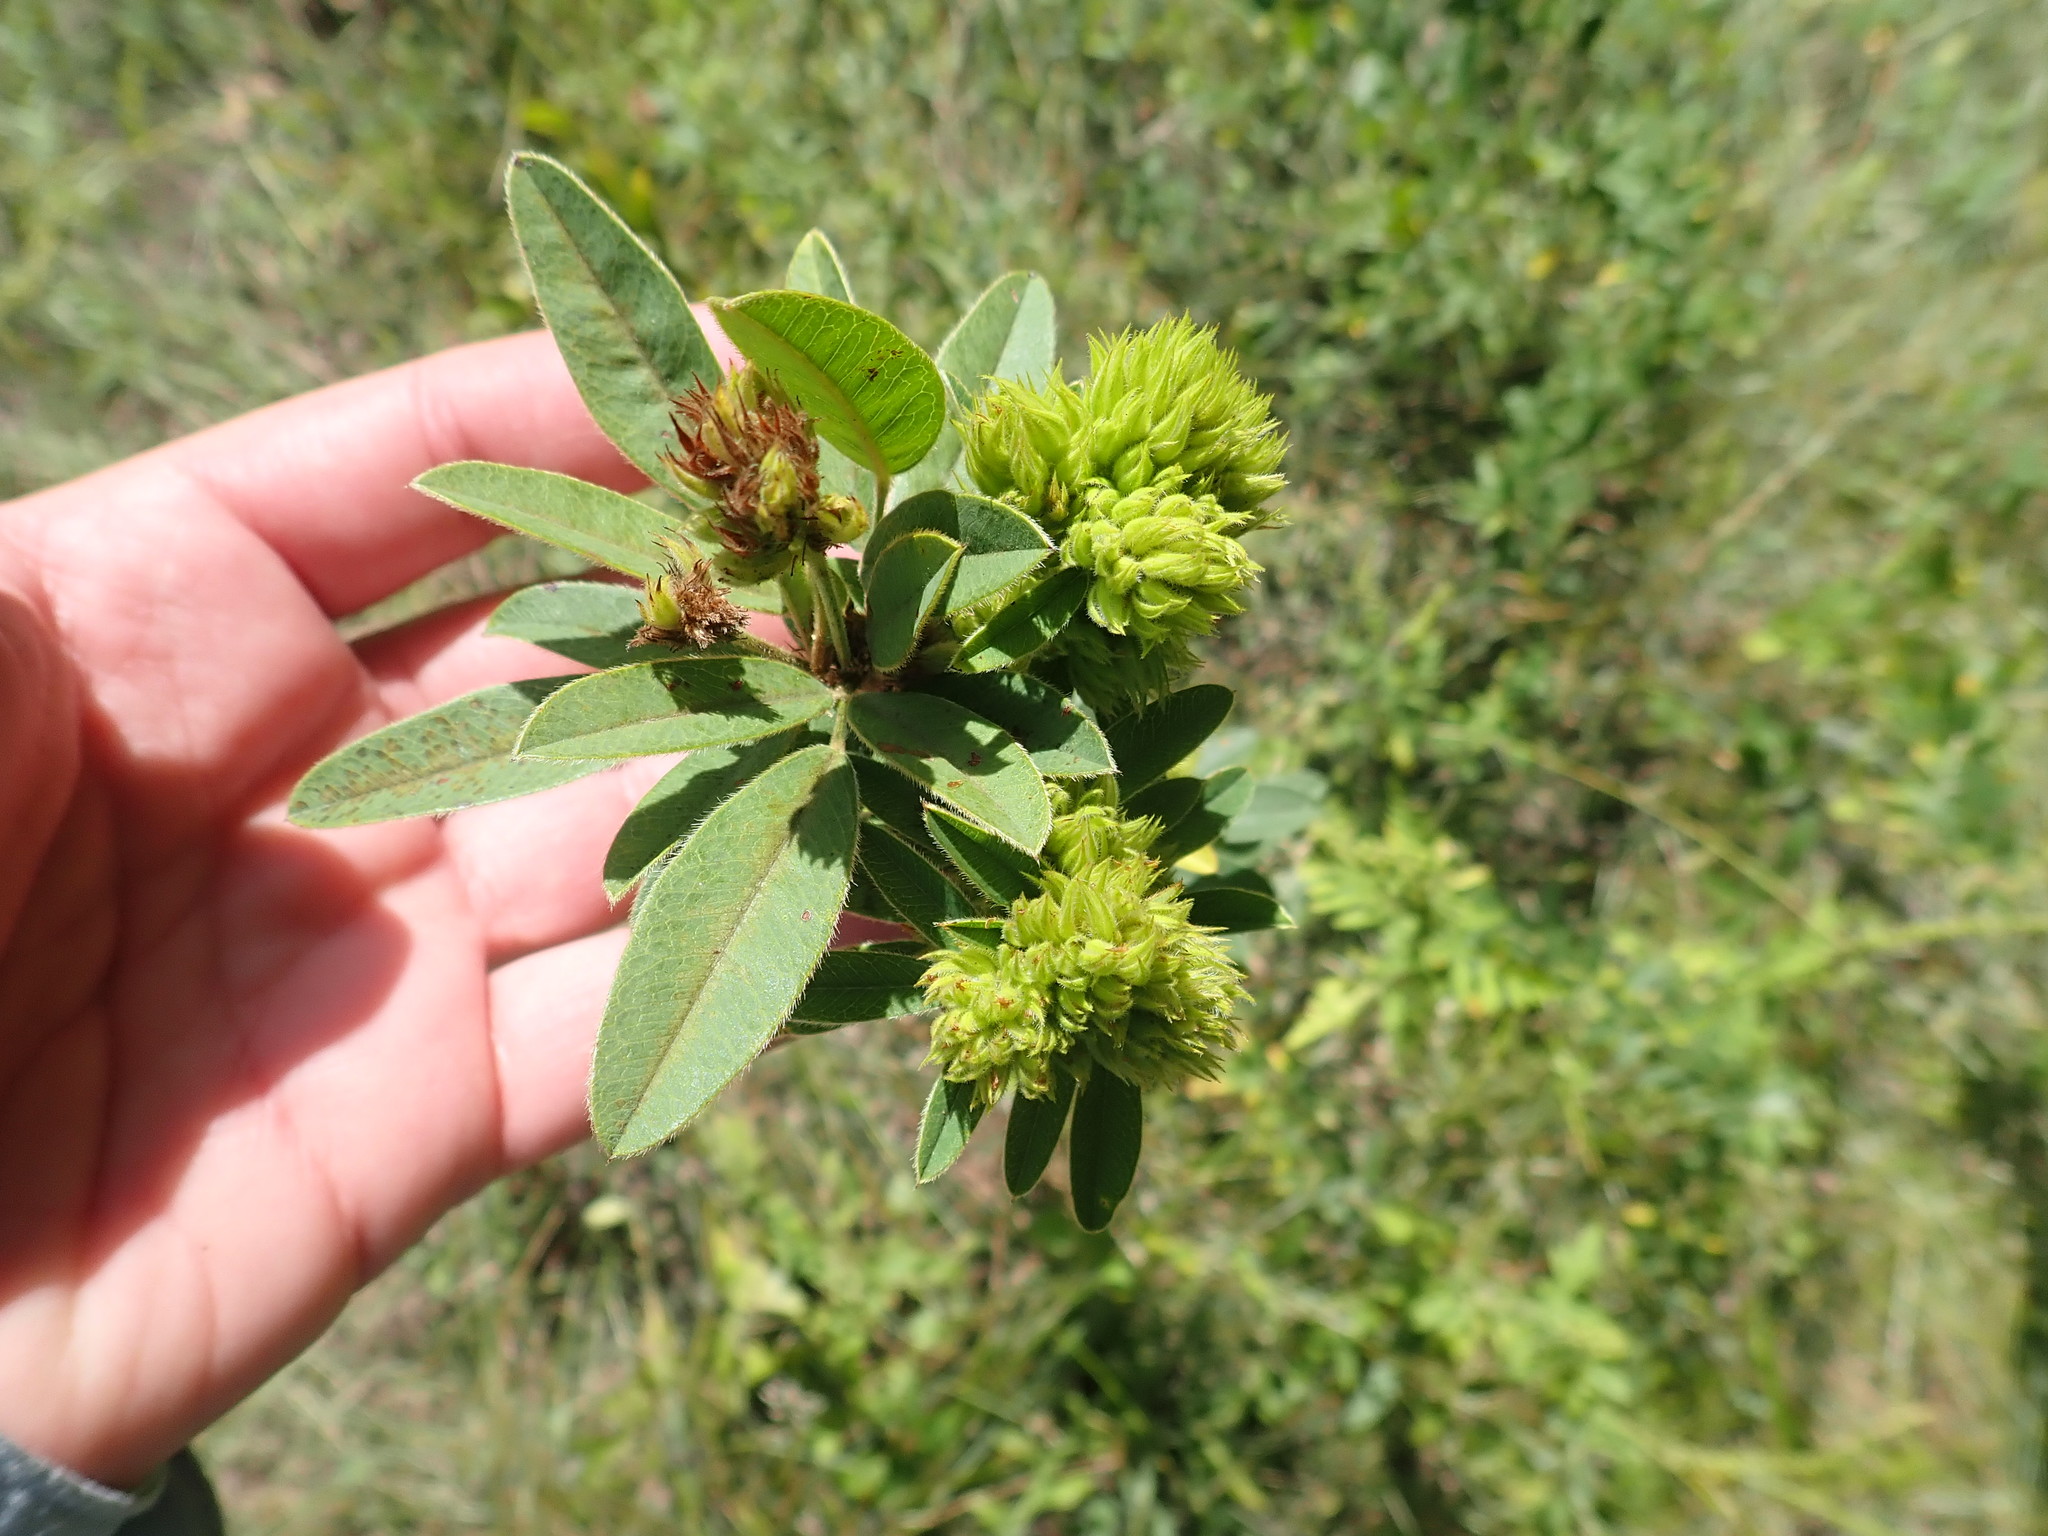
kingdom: Plantae
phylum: Tracheophyta
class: Magnoliopsida
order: Fabales
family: Fabaceae
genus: Lespedeza
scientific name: Lespedeza capitata
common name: Dusty clover
